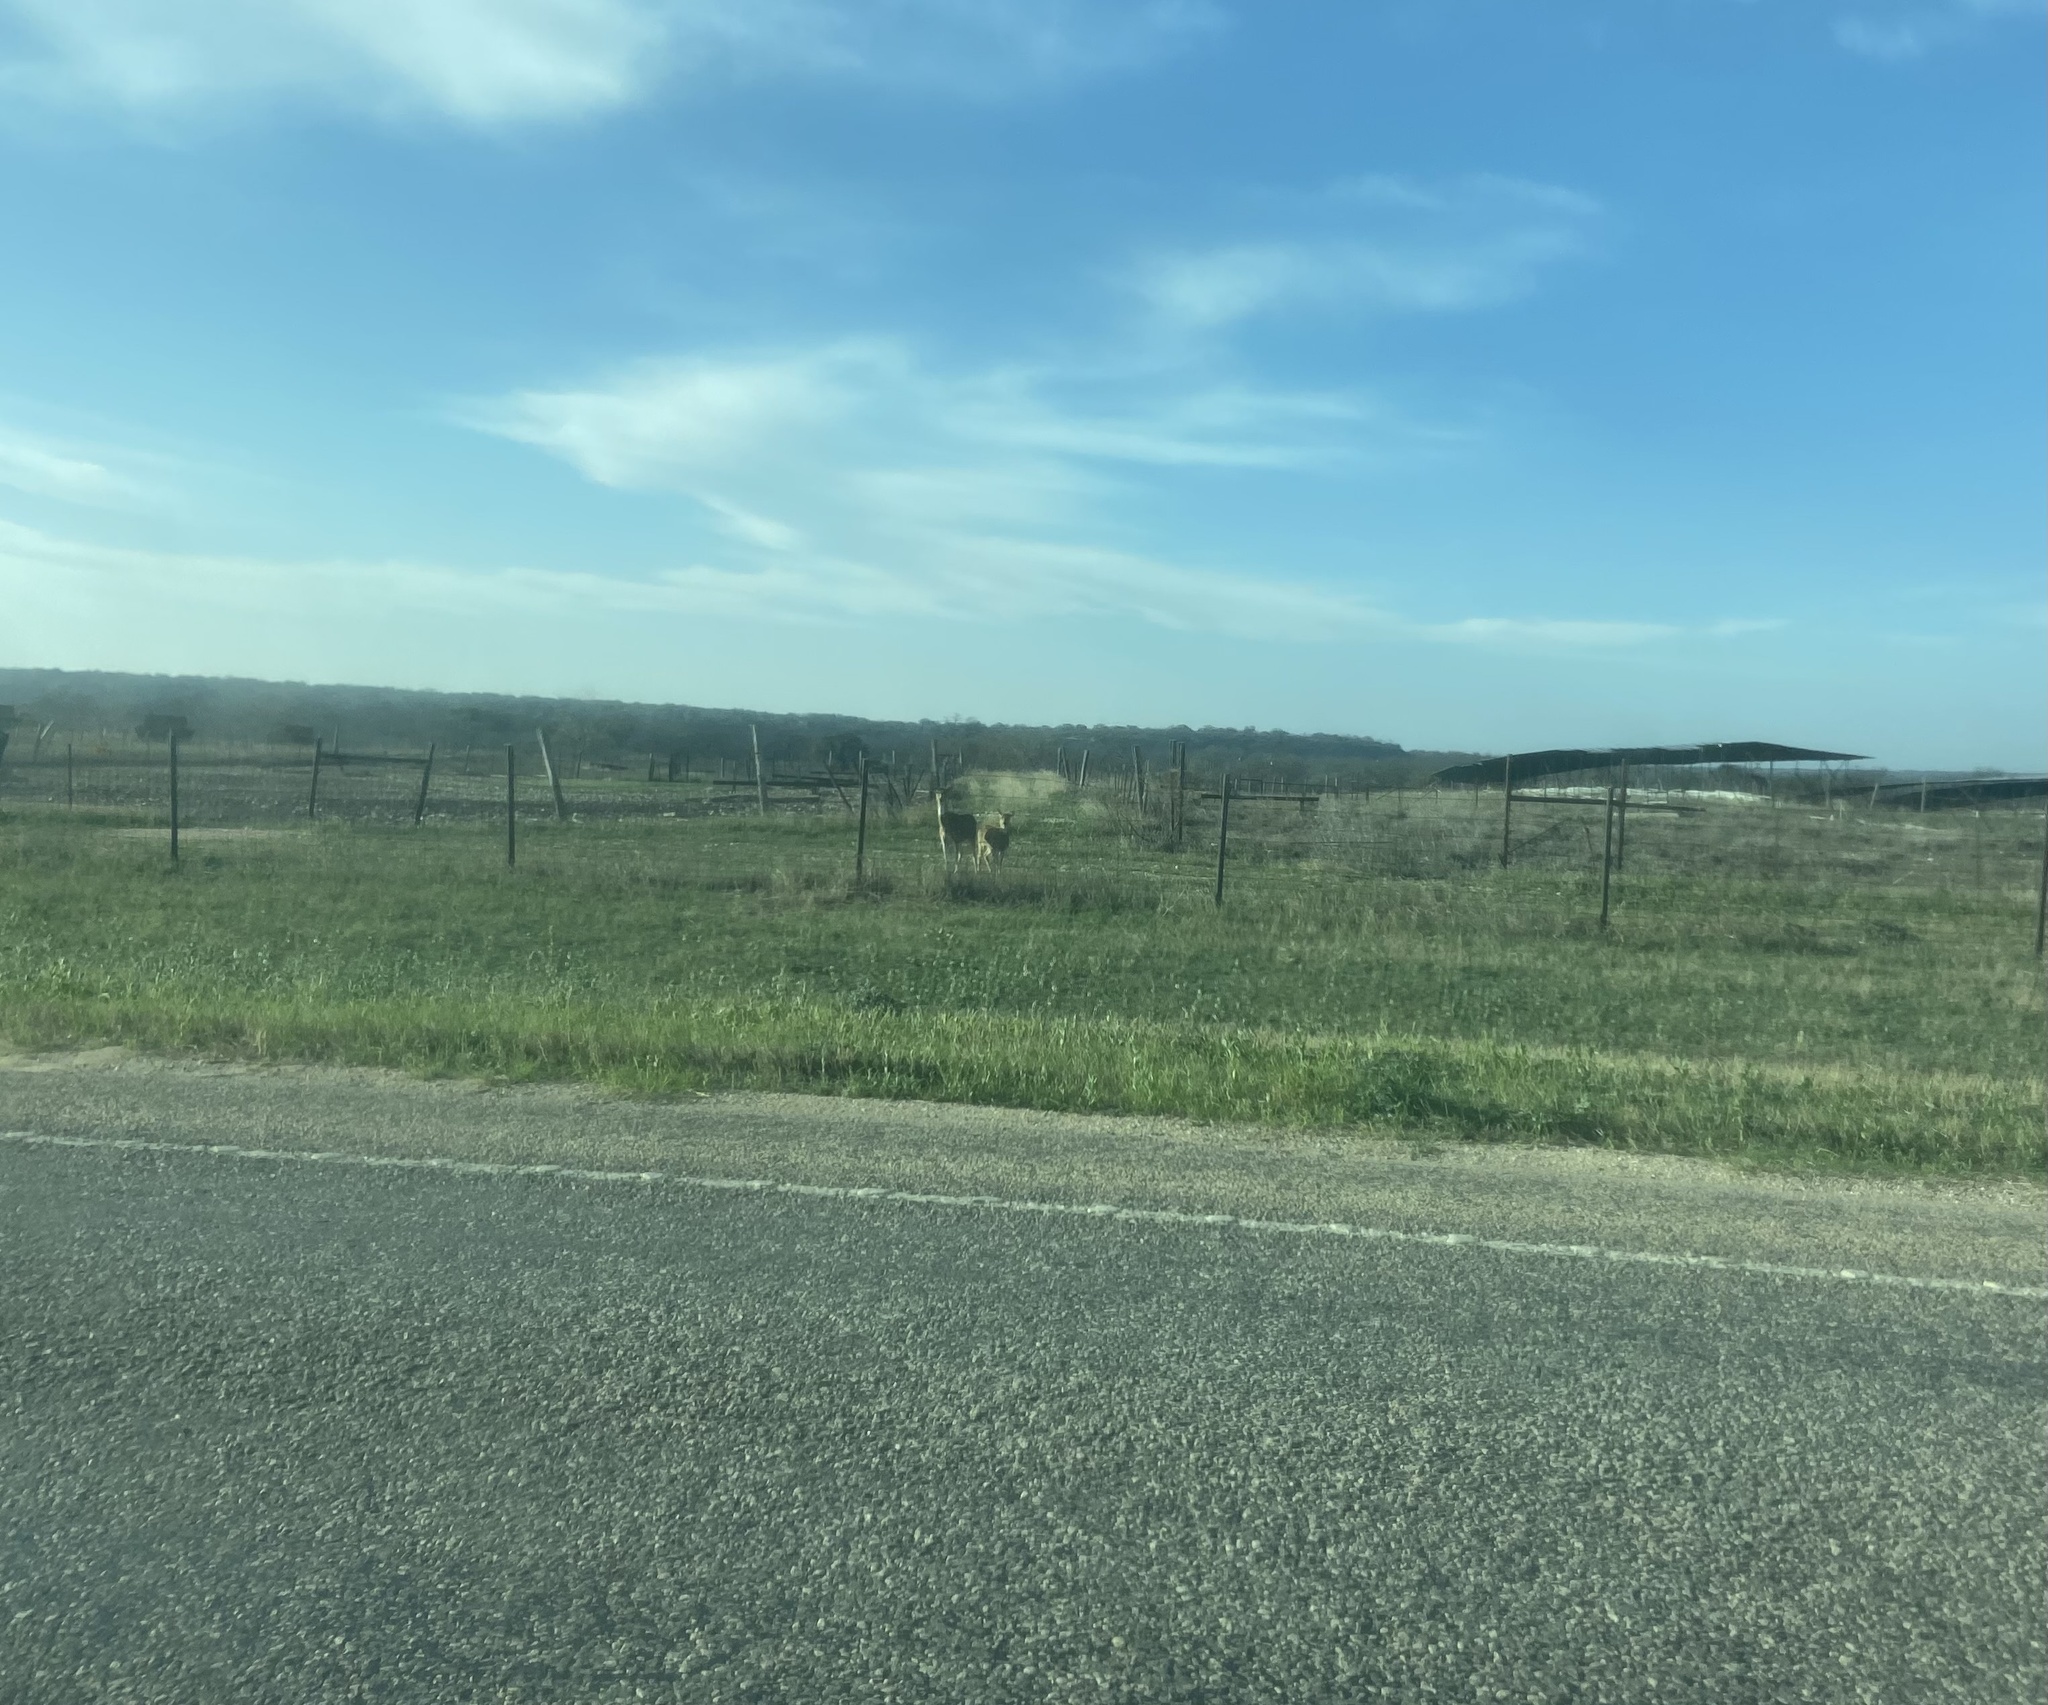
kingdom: Animalia
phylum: Chordata
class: Mammalia
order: Artiodactyla
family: Cervidae
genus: Odocoileus
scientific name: Odocoileus virginianus
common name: White-tailed deer
